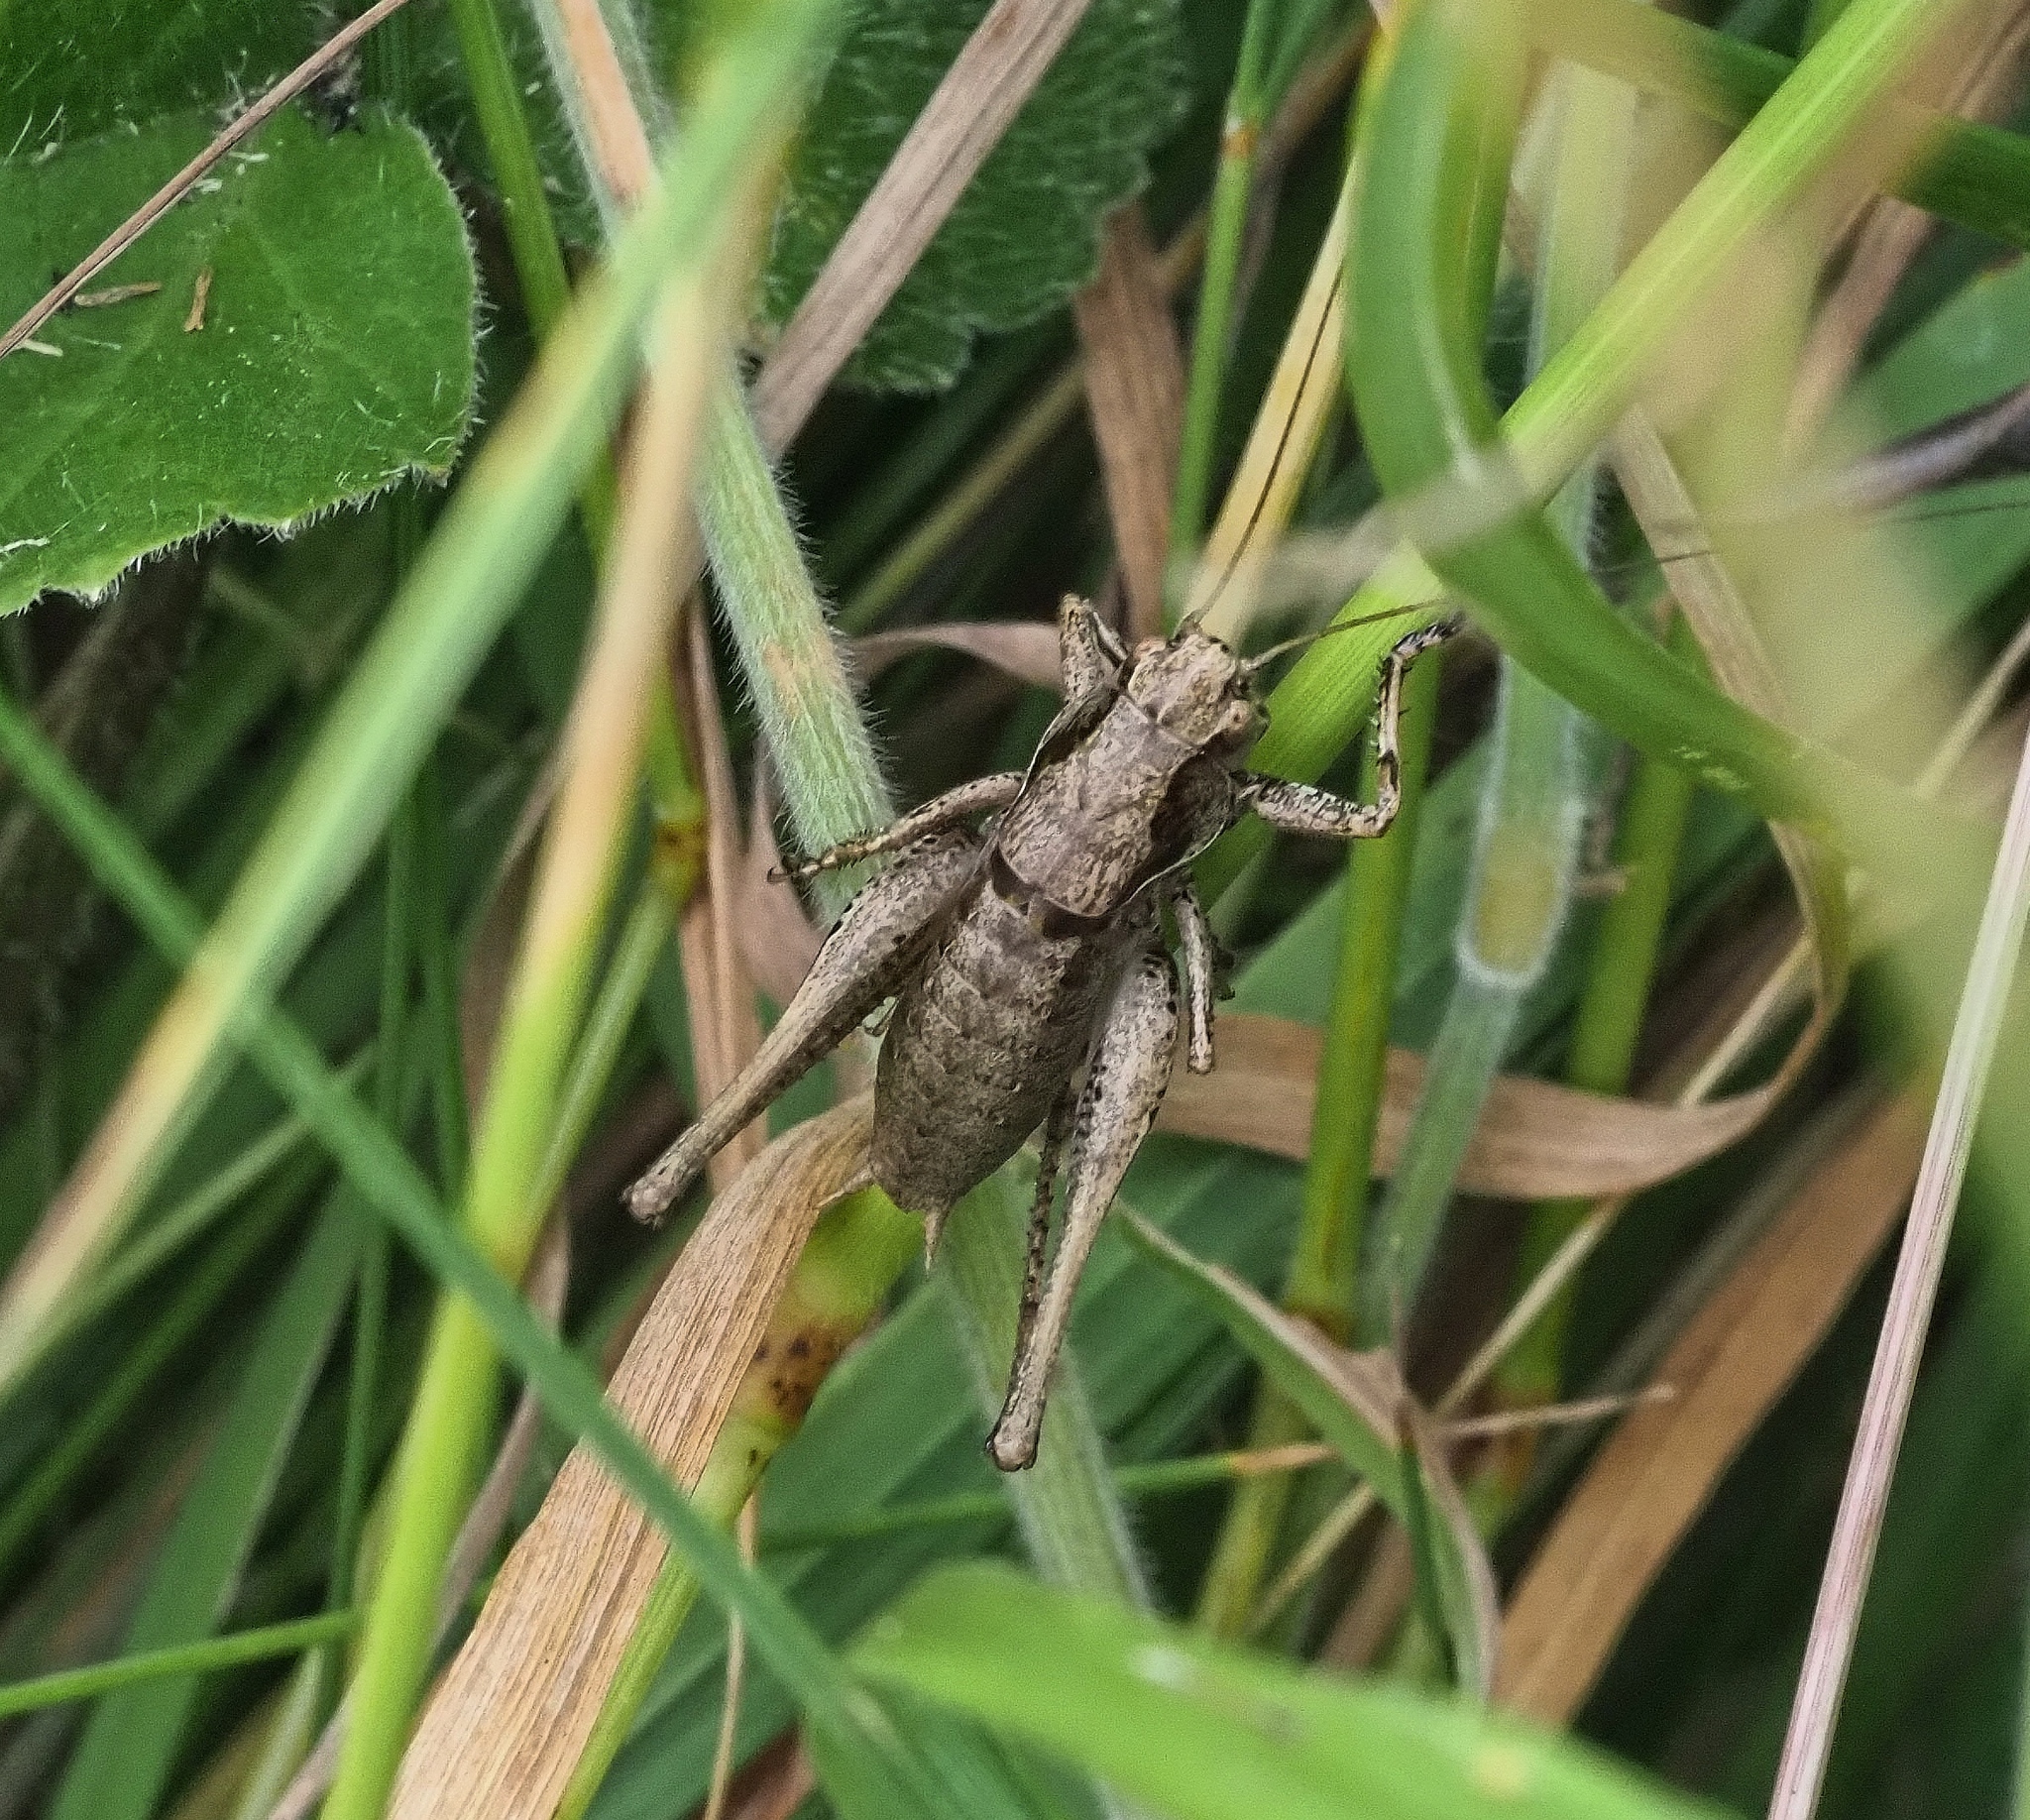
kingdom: Animalia
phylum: Arthropoda
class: Insecta
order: Orthoptera
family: Tettigoniidae
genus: Pholidoptera
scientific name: Pholidoptera griseoaptera
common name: Dark bush-cricket
